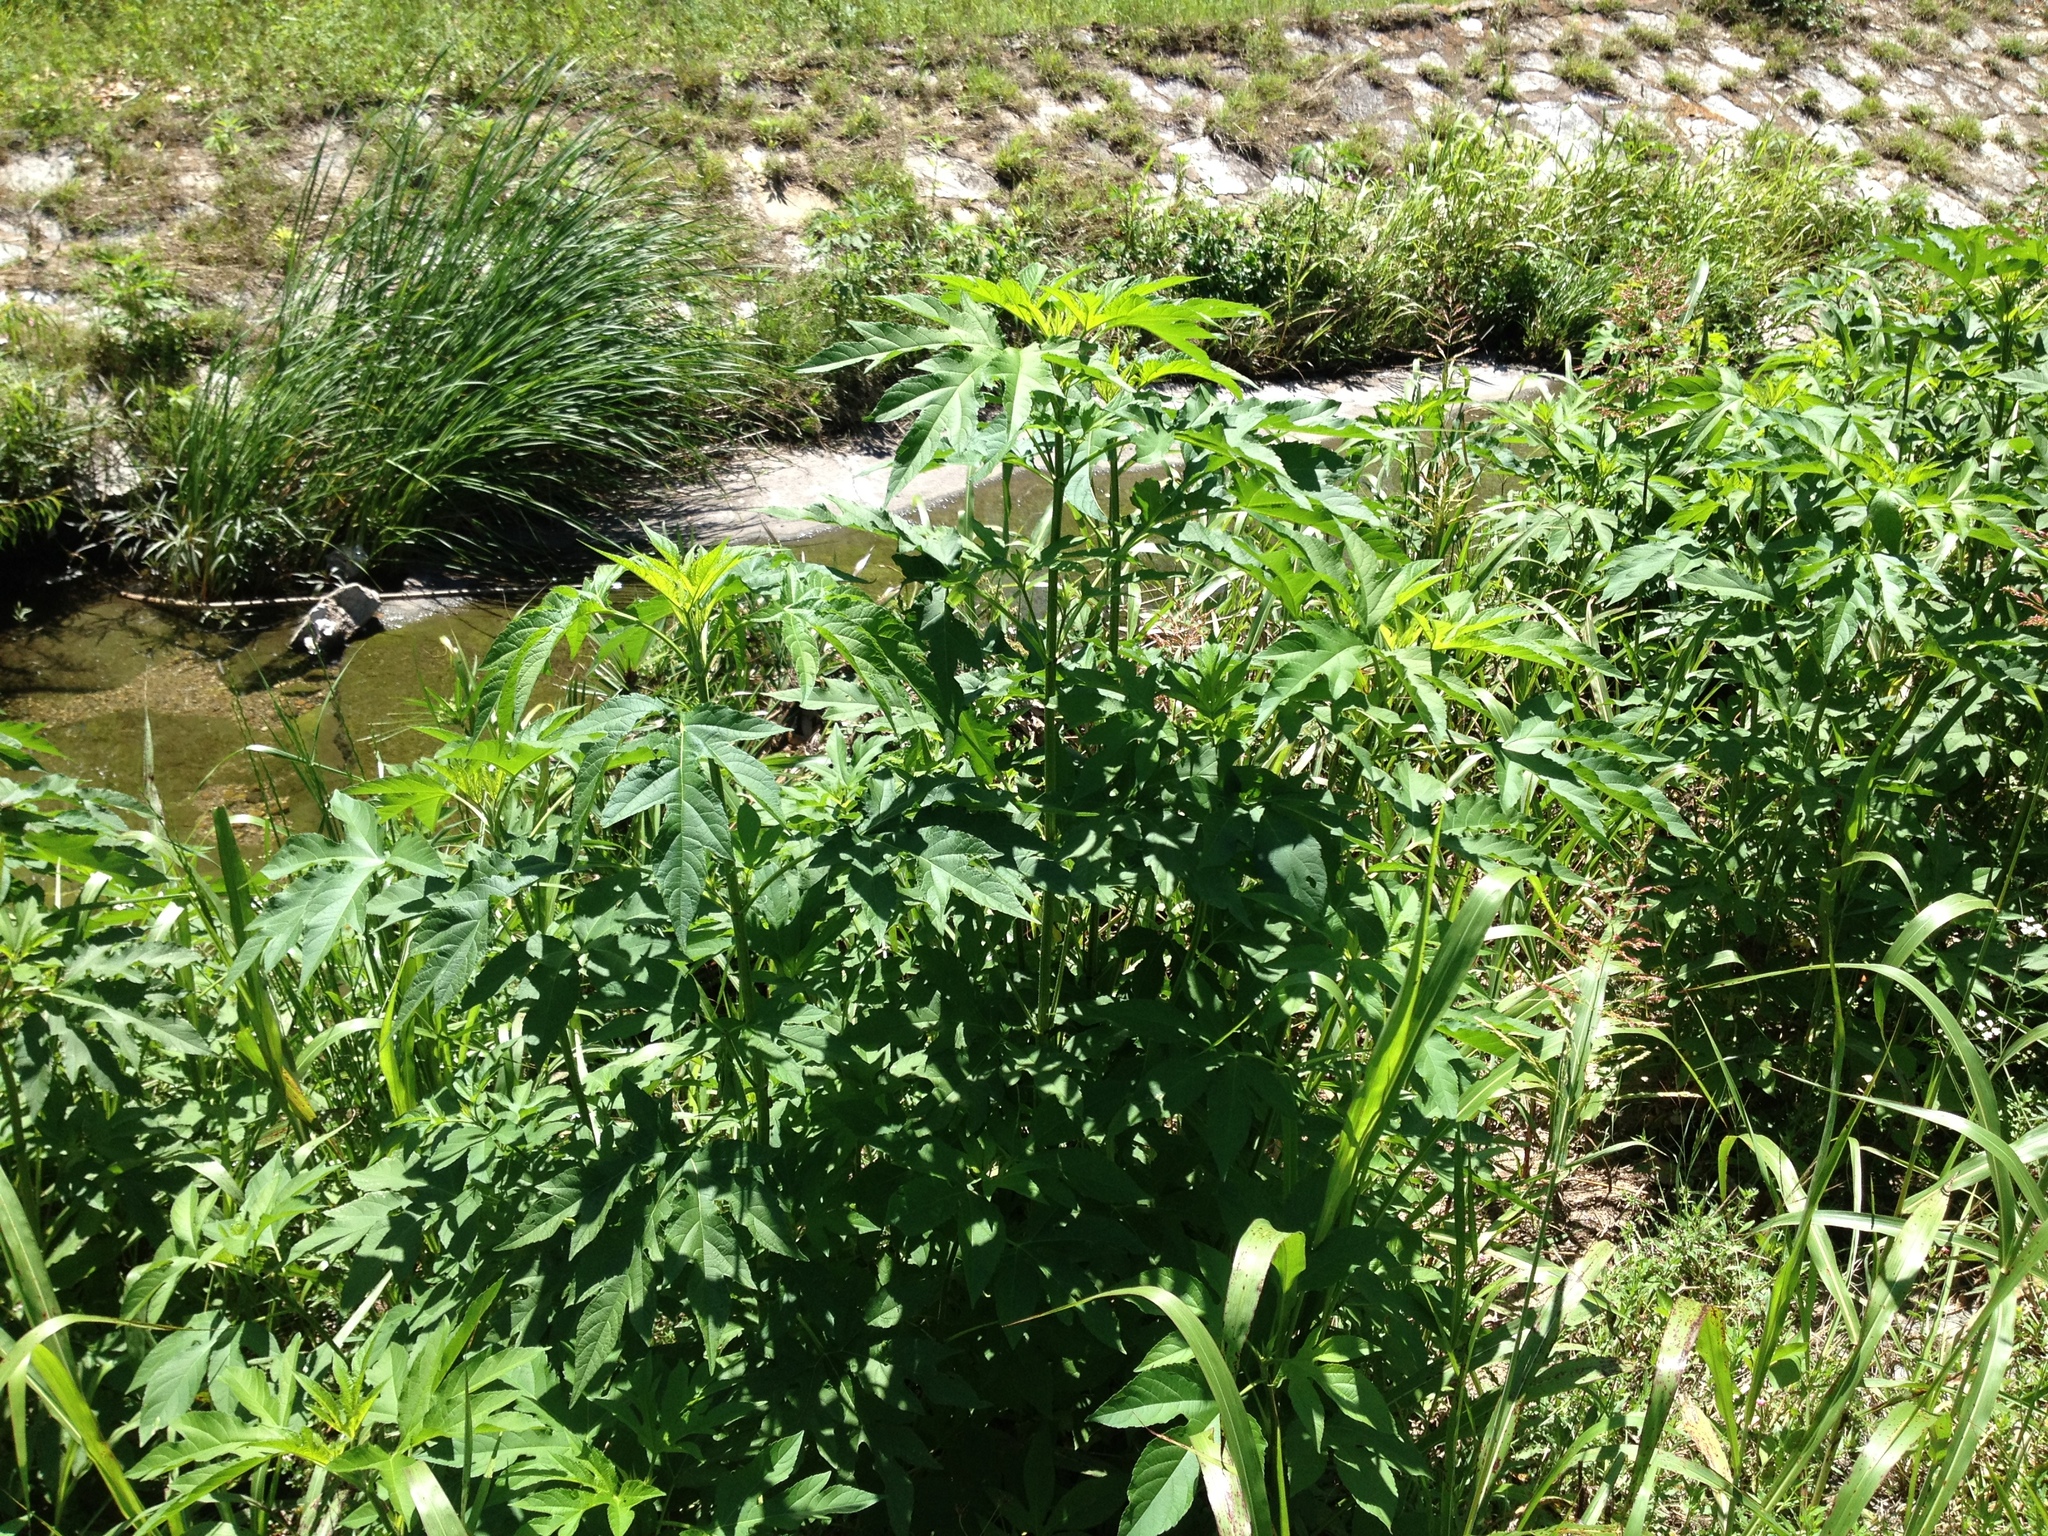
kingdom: Plantae
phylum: Tracheophyta
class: Magnoliopsida
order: Asterales
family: Asteraceae
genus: Ambrosia
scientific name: Ambrosia trifida
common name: Giant ragweed
